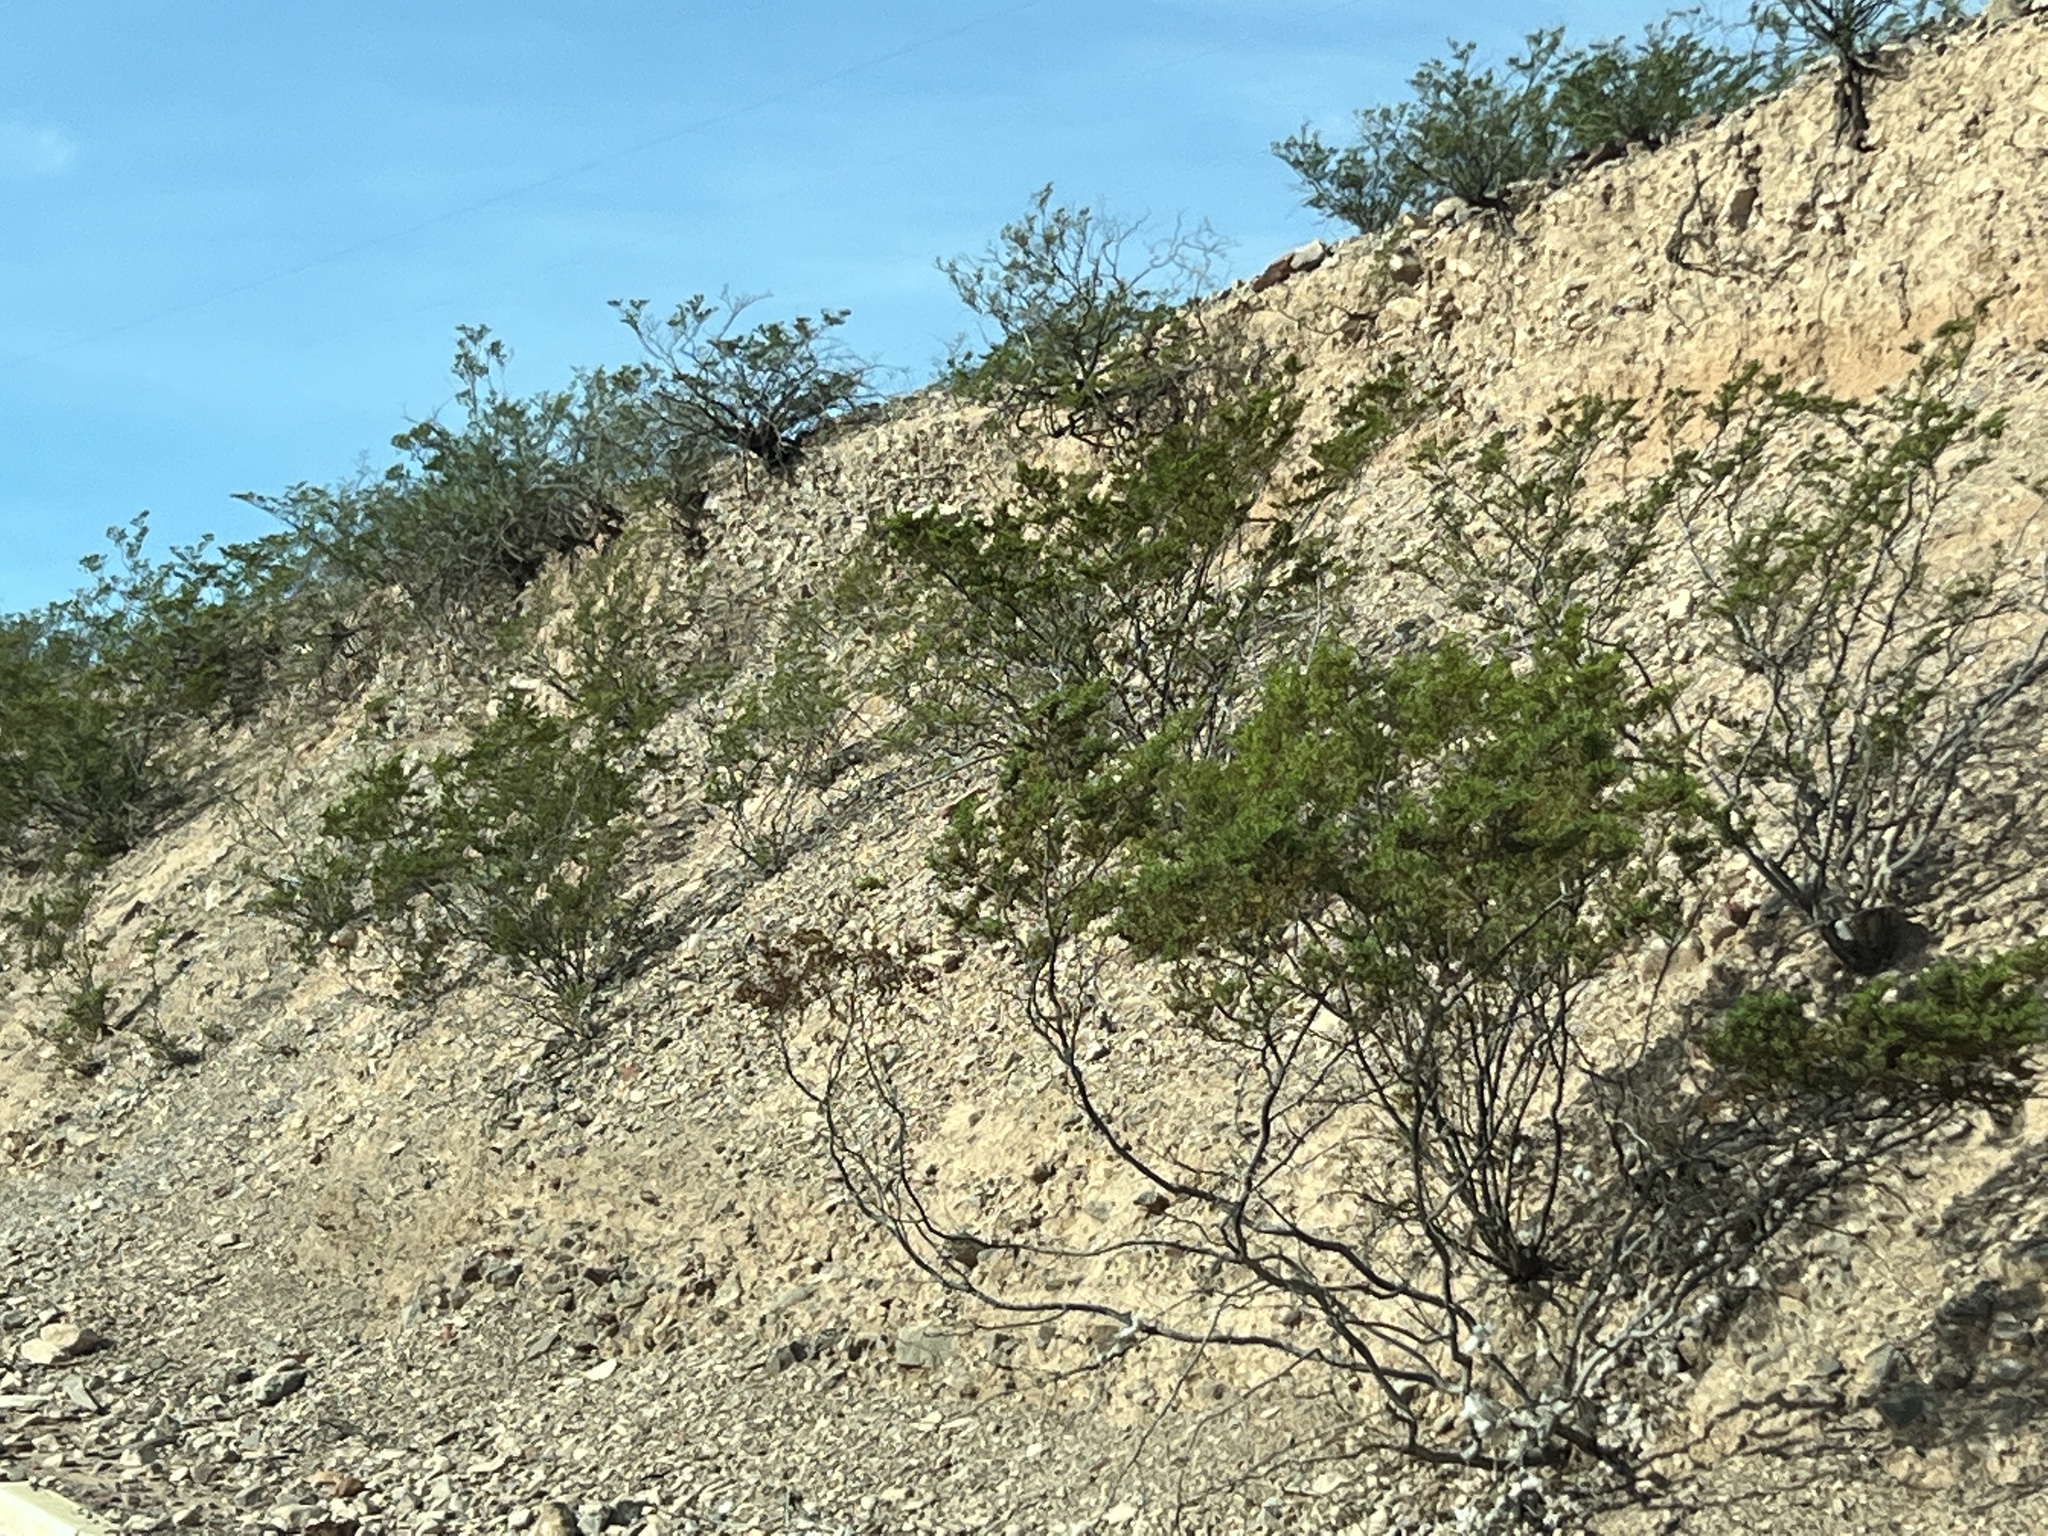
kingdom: Plantae
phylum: Tracheophyta
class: Magnoliopsida
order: Zygophyllales
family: Zygophyllaceae
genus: Larrea
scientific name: Larrea tridentata
